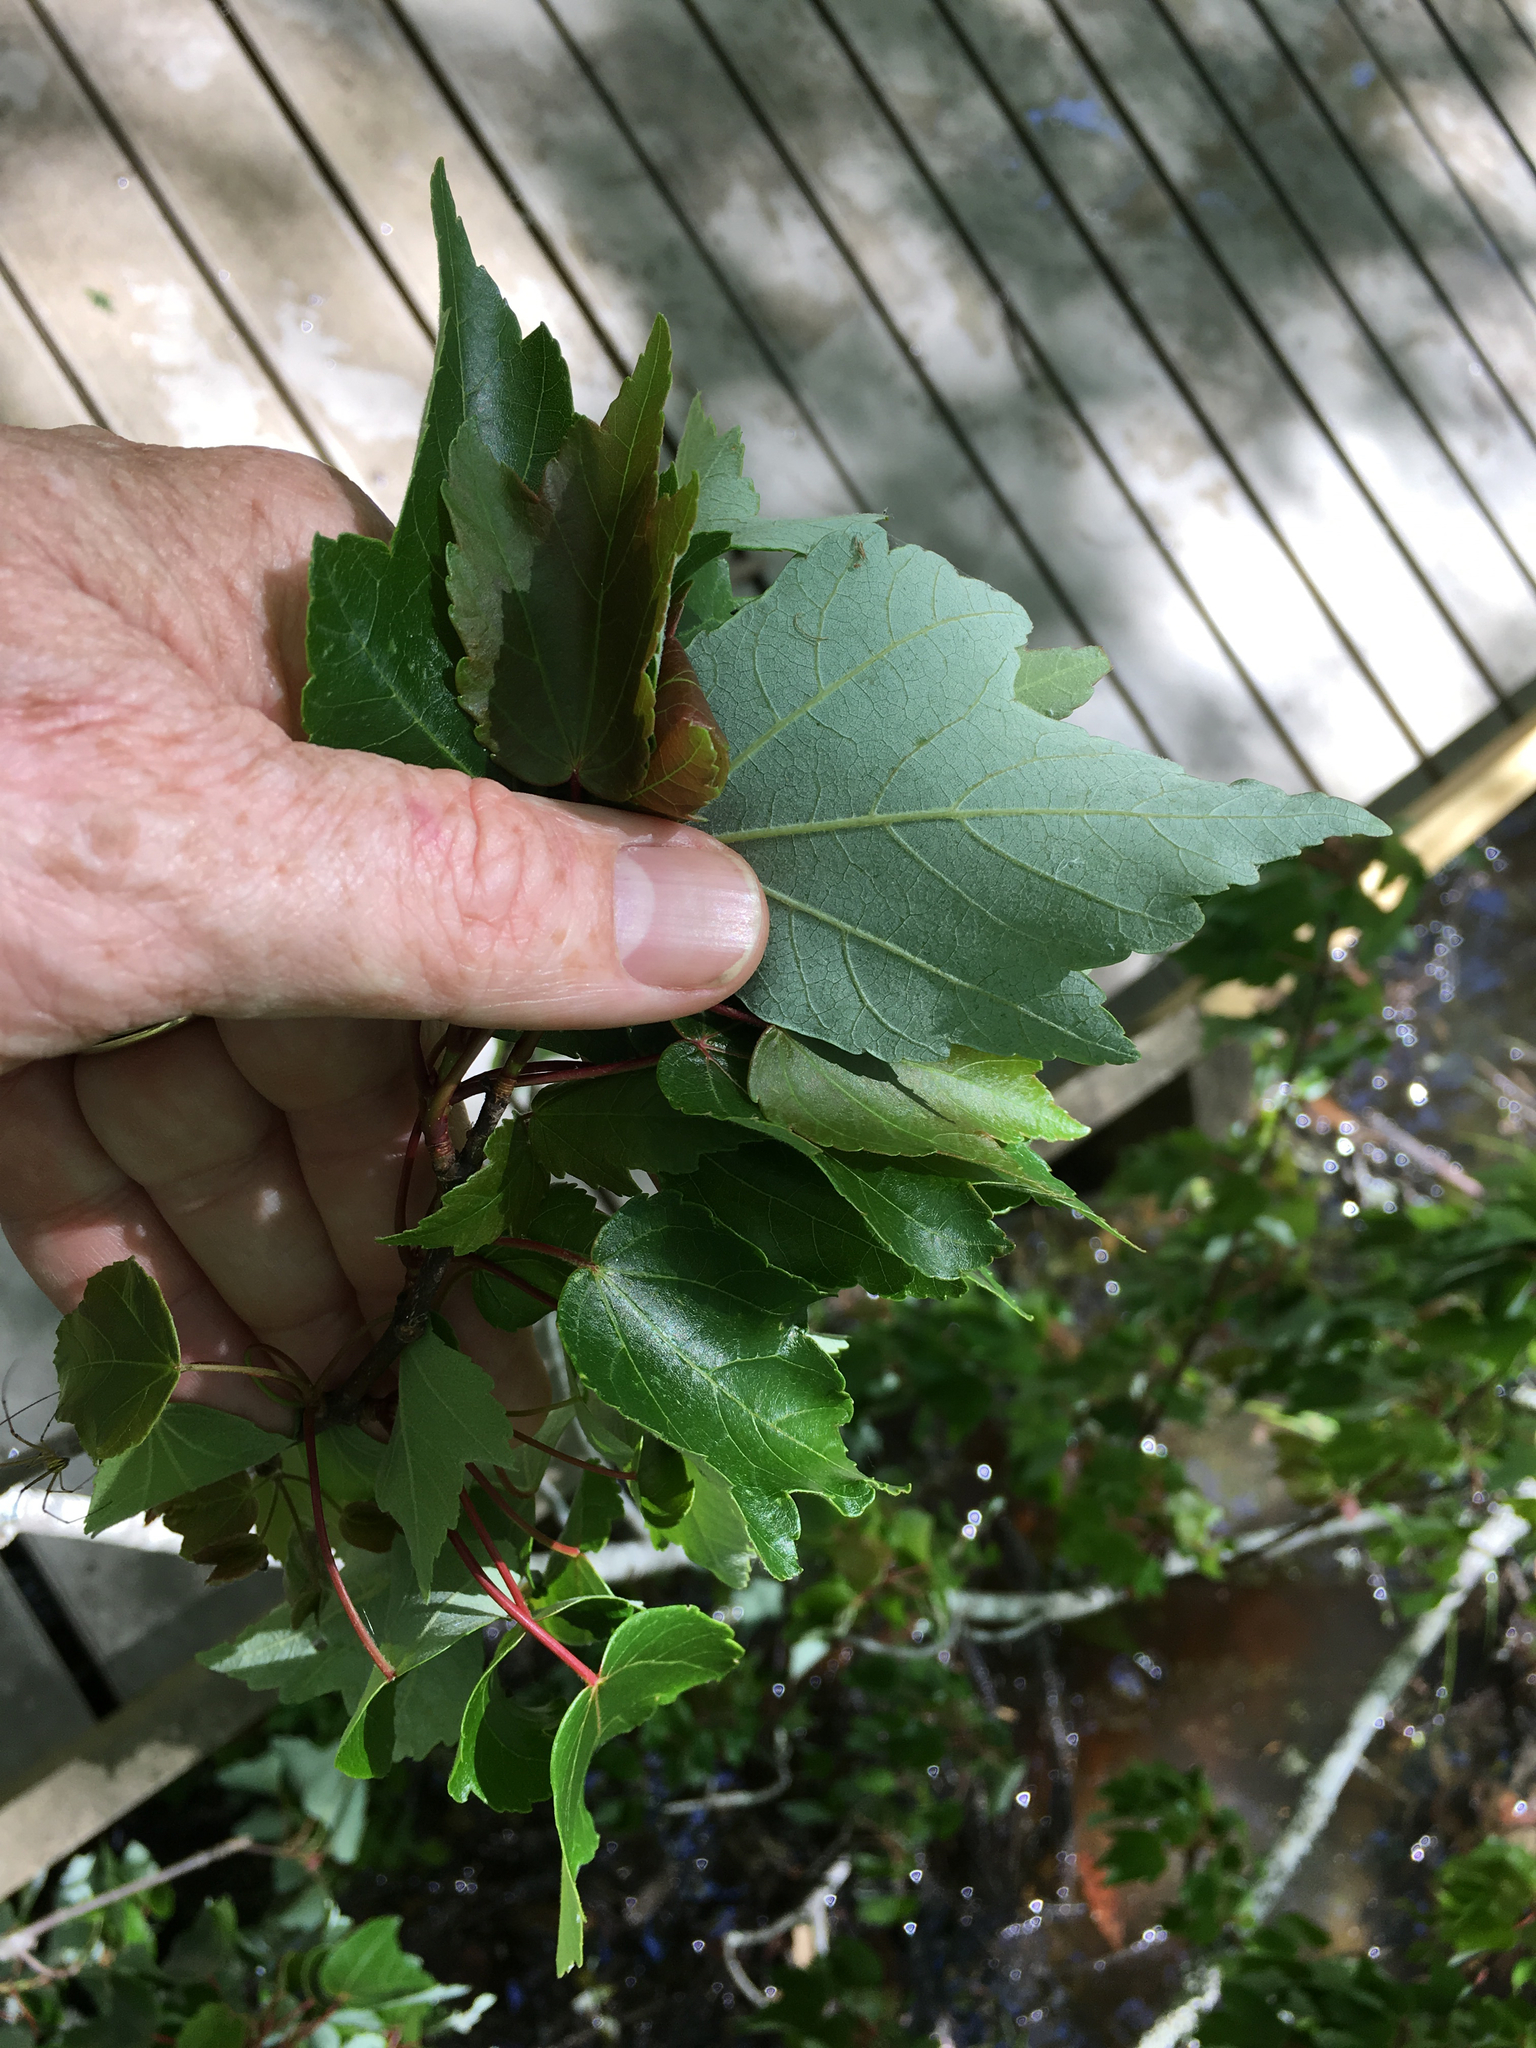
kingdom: Plantae
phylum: Tracheophyta
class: Magnoliopsida
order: Sapindales
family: Sapindaceae
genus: Acer
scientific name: Acer rubrum
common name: Red maple
